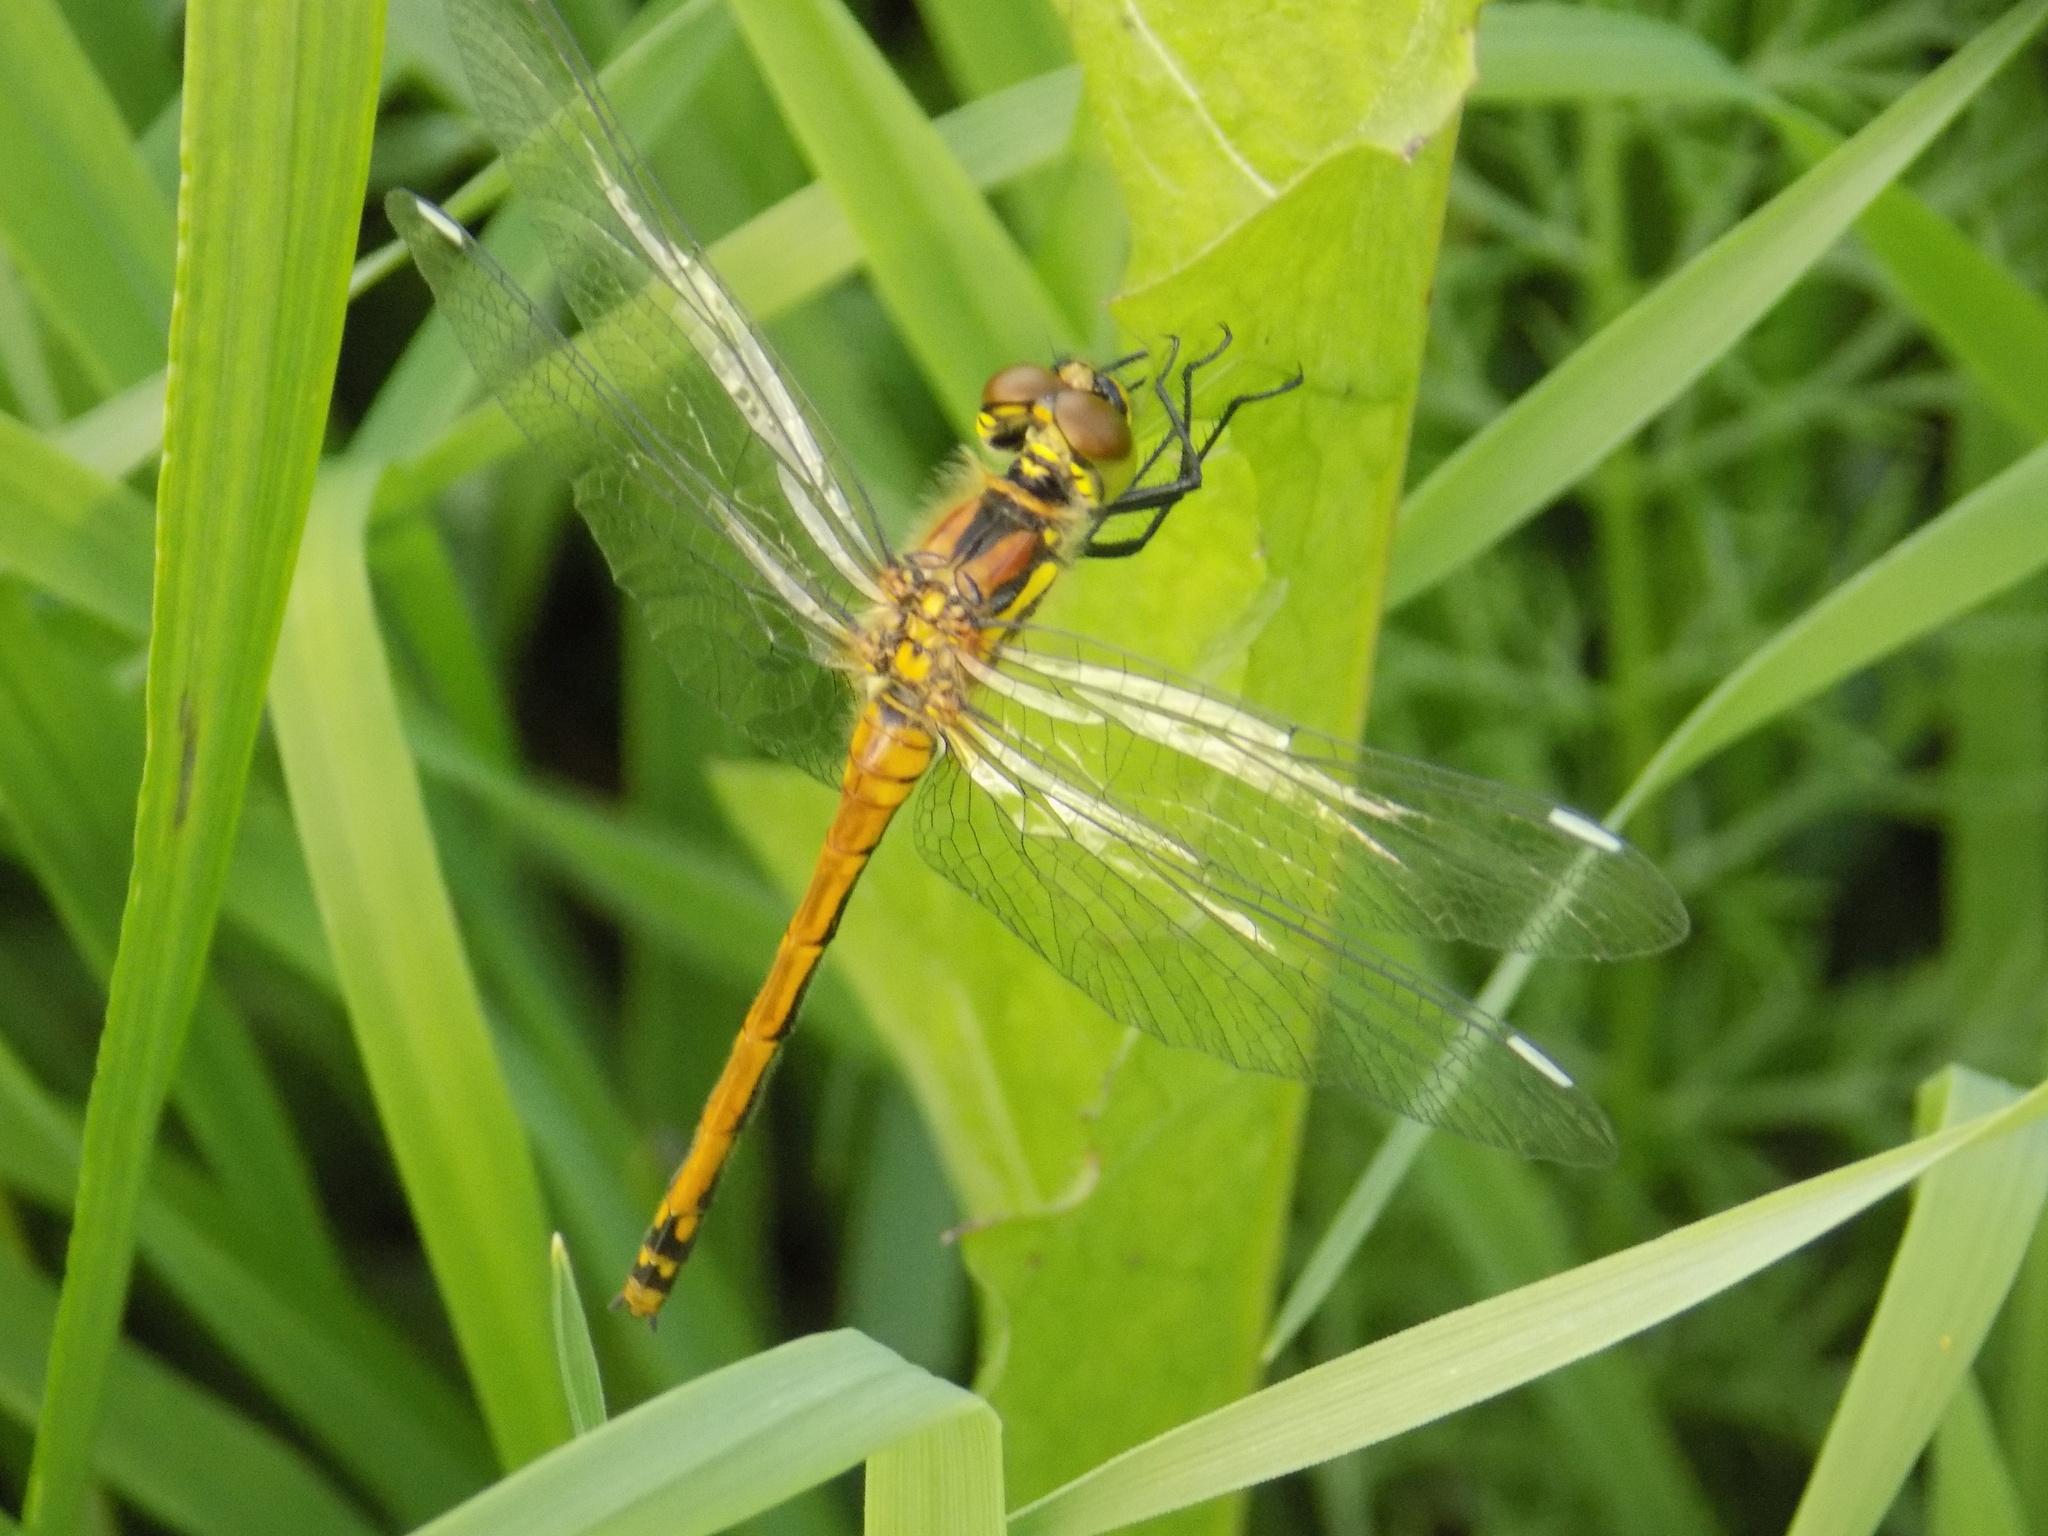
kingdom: Animalia
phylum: Arthropoda
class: Insecta
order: Odonata
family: Libellulidae
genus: Sympetrum
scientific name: Sympetrum danae
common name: Black darter
